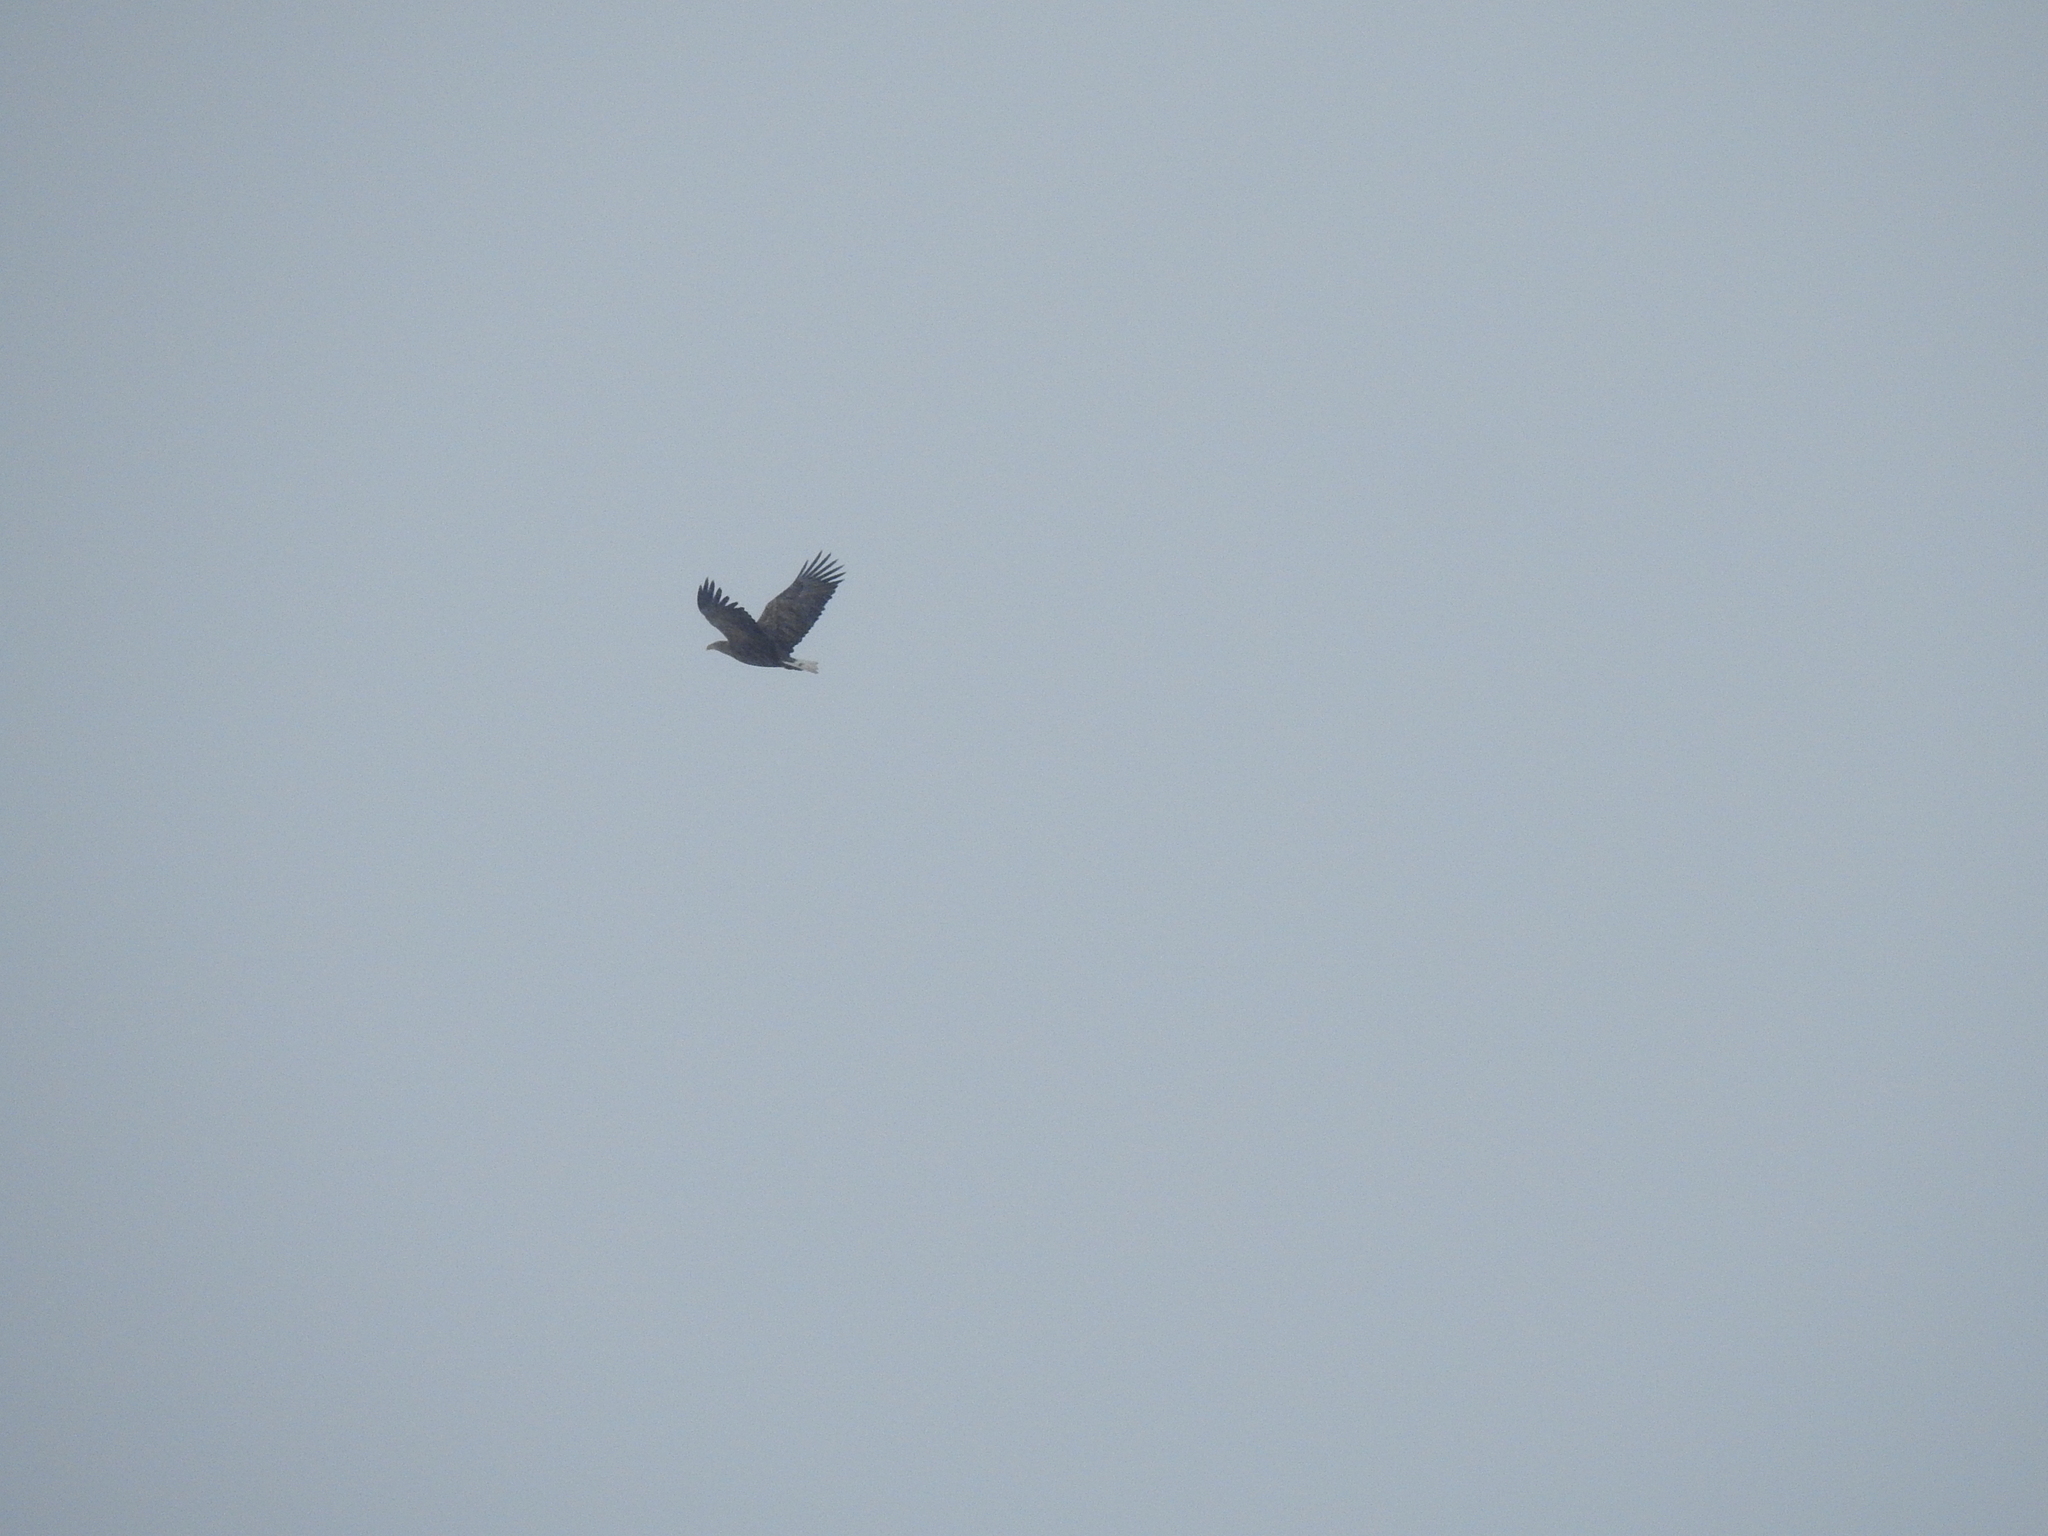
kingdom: Animalia
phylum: Chordata
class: Aves
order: Accipitriformes
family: Accipitridae
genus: Haliaeetus
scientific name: Haliaeetus albicilla
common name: White-tailed eagle
